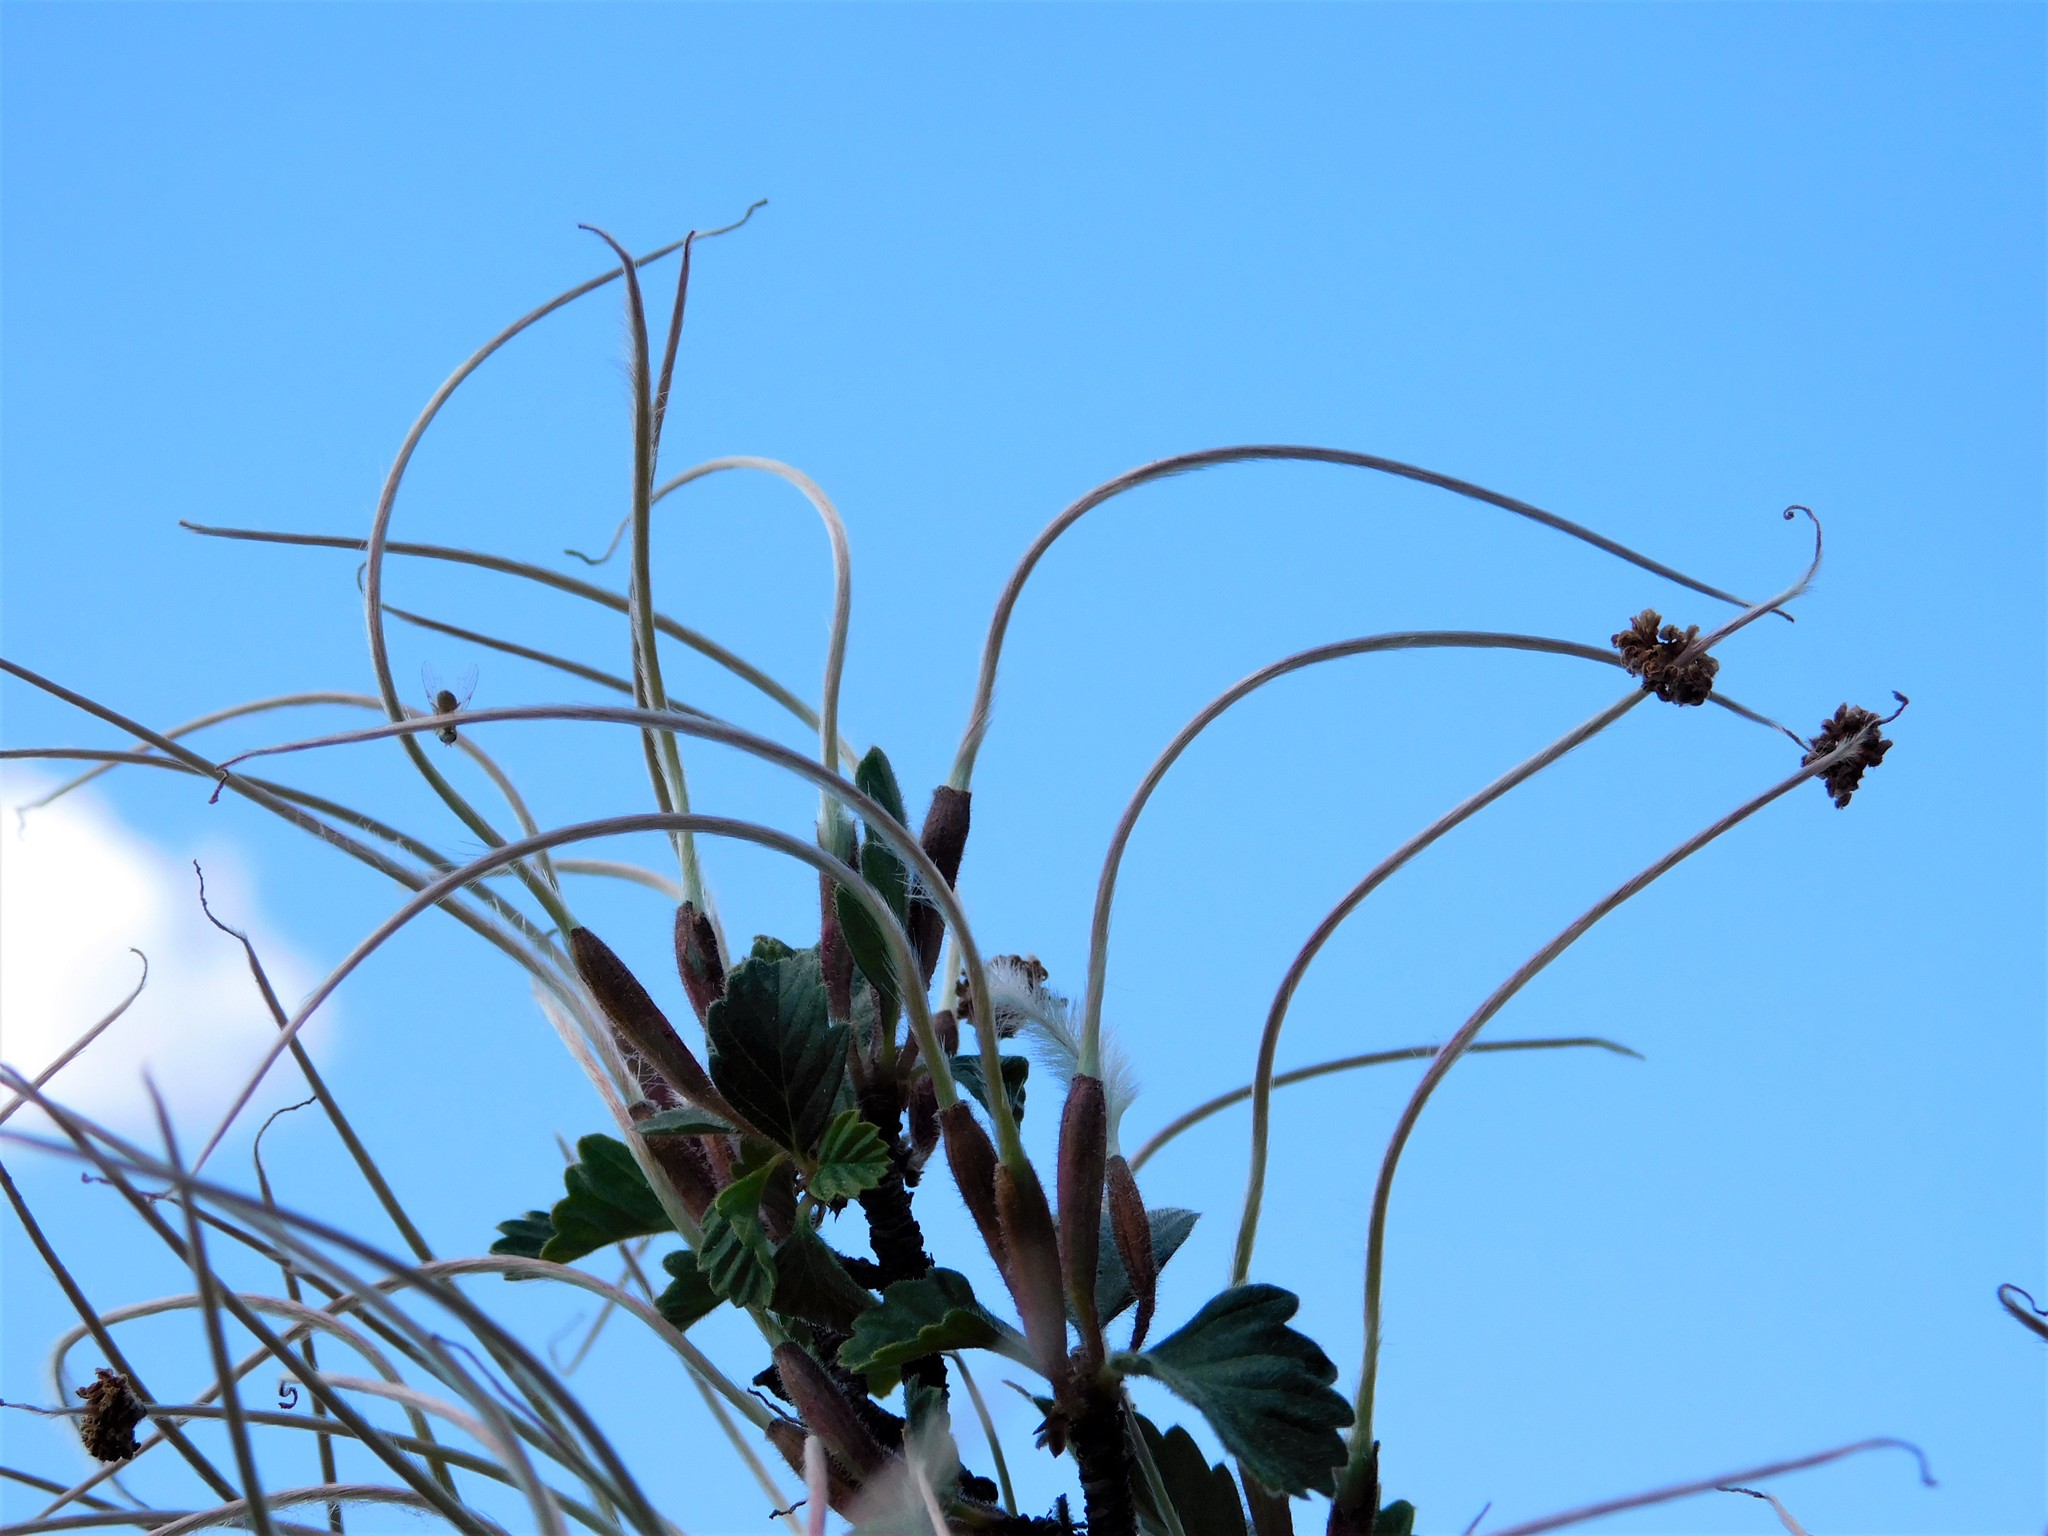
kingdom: Plantae
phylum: Tracheophyta
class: Magnoliopsida
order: Rosales
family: Rosaceae
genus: Cercocarpus
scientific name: Cercocarpus montanus
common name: Alder-leaf cercocarpus
